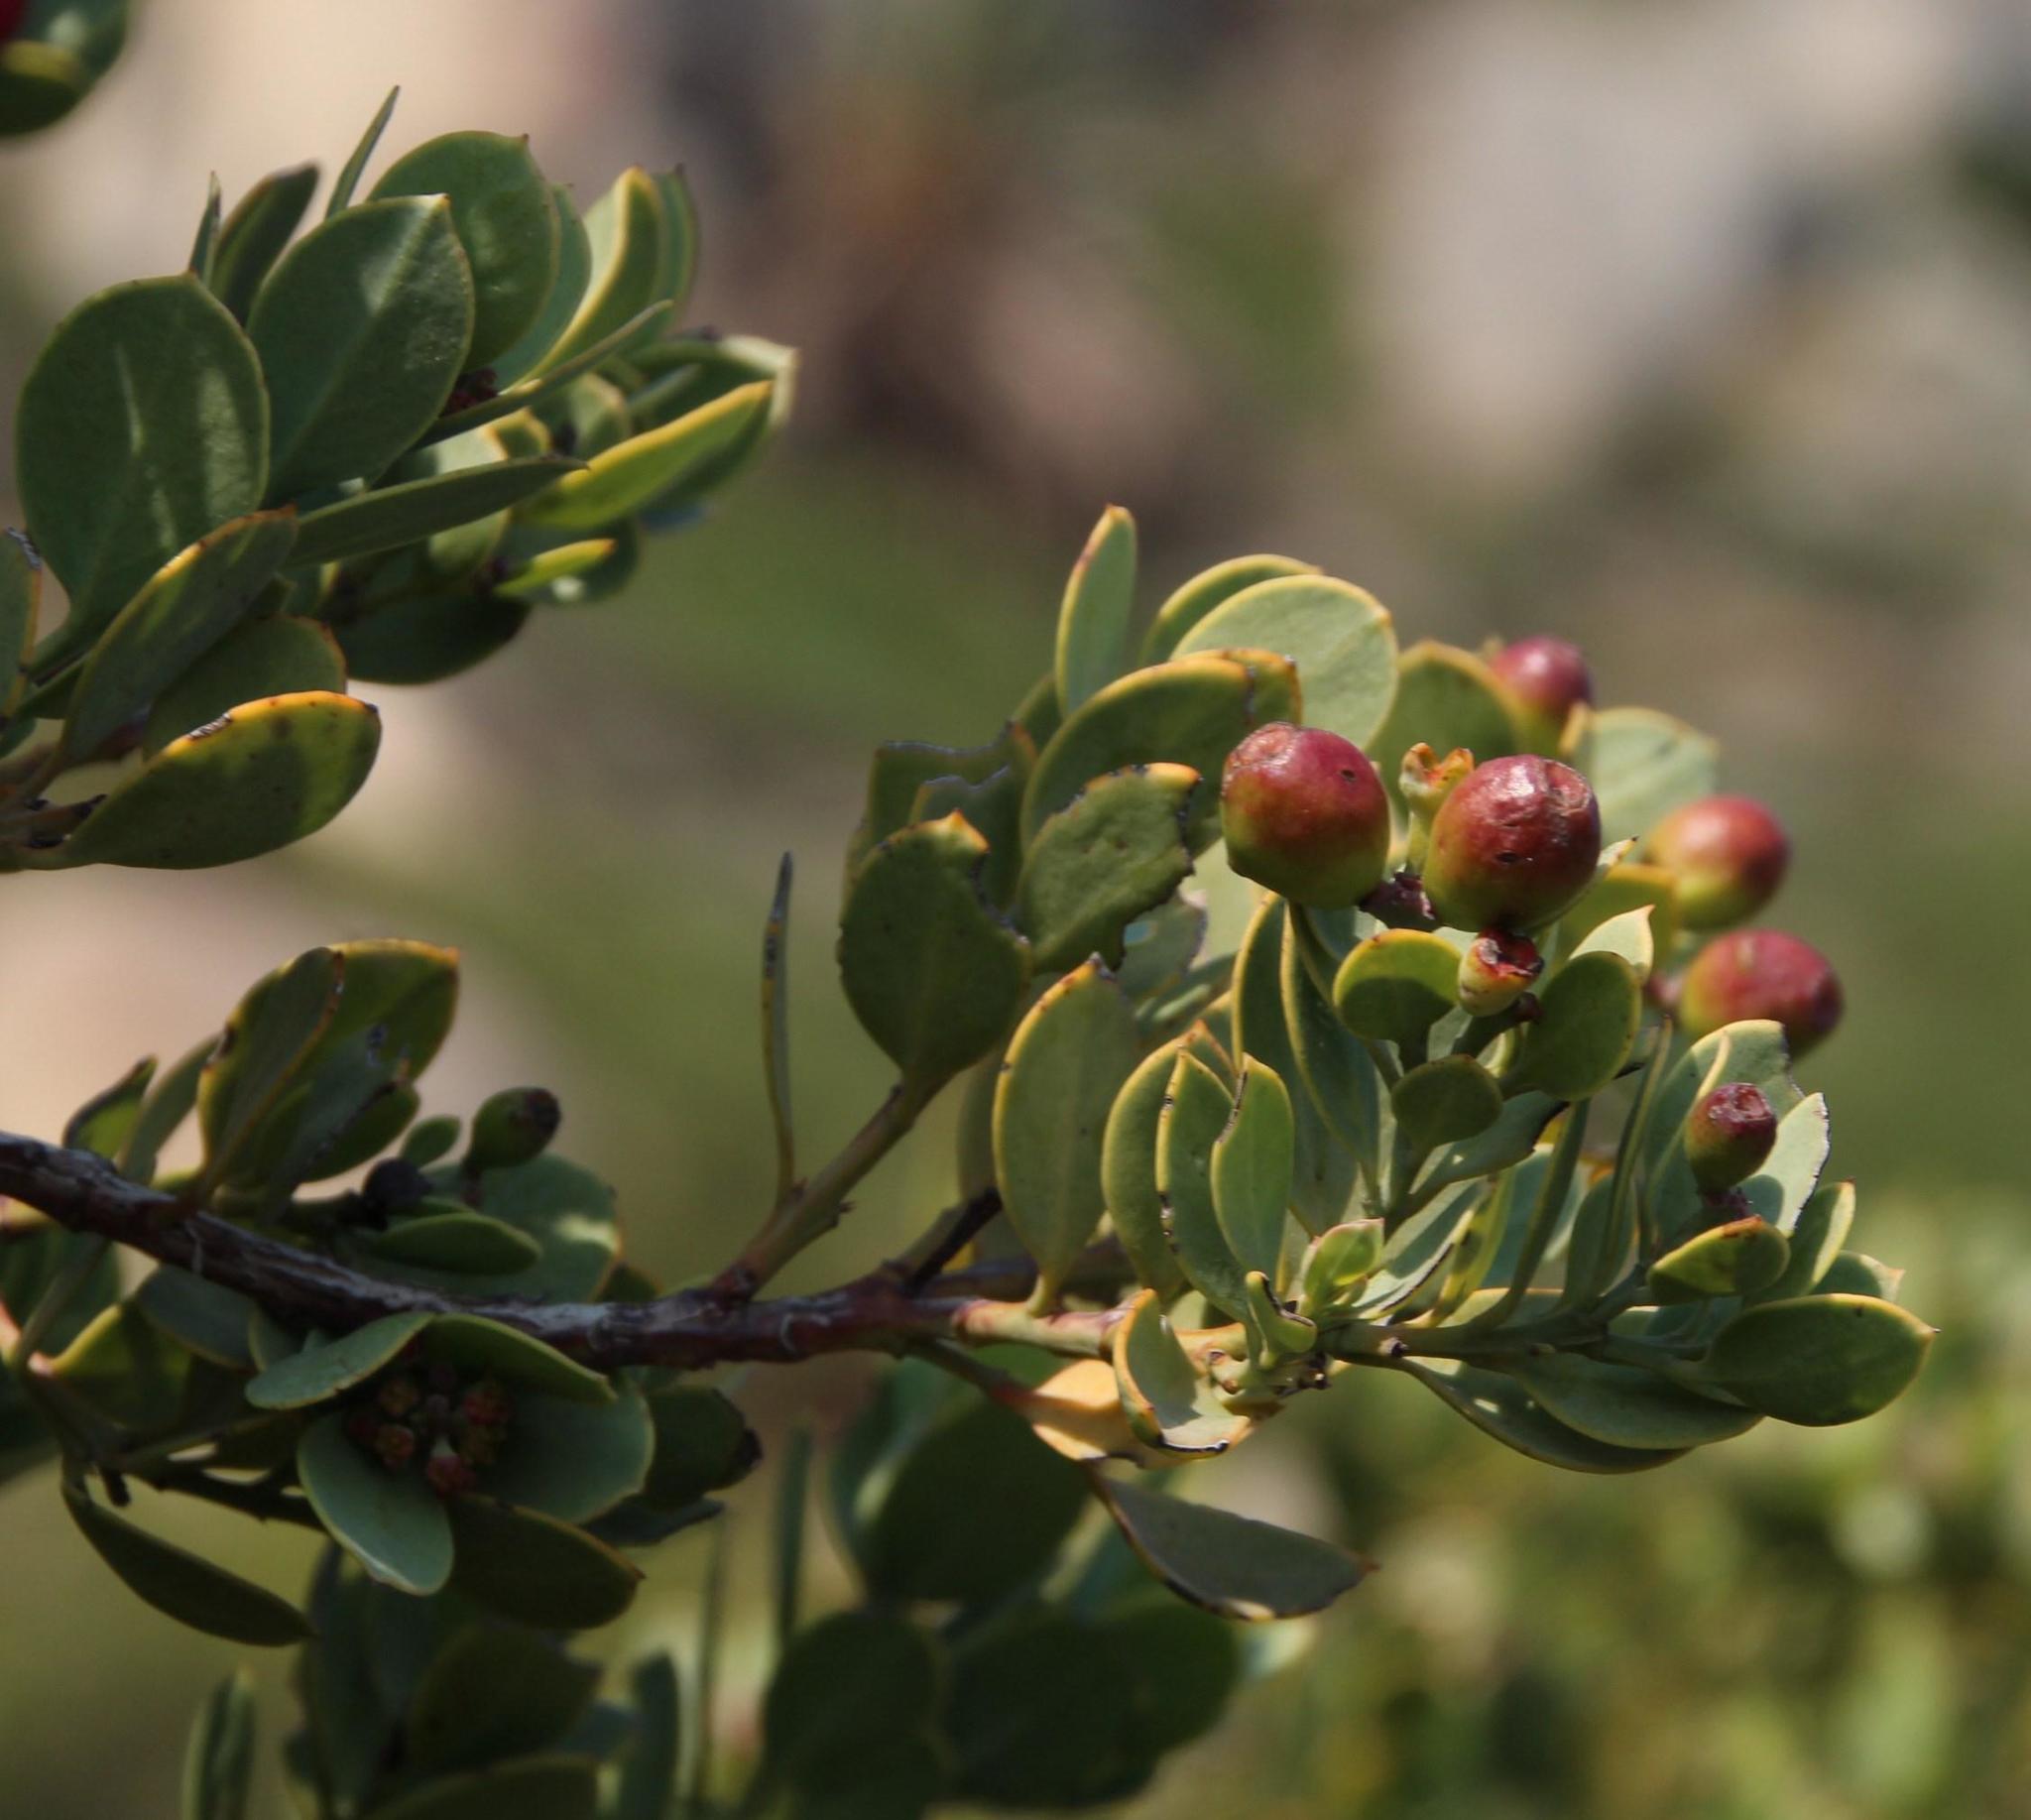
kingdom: Plantae
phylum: Tracheophyta
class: Magnoliopsida
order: Santalales
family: Santalaceae
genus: Osyris
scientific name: Osyris compressa
